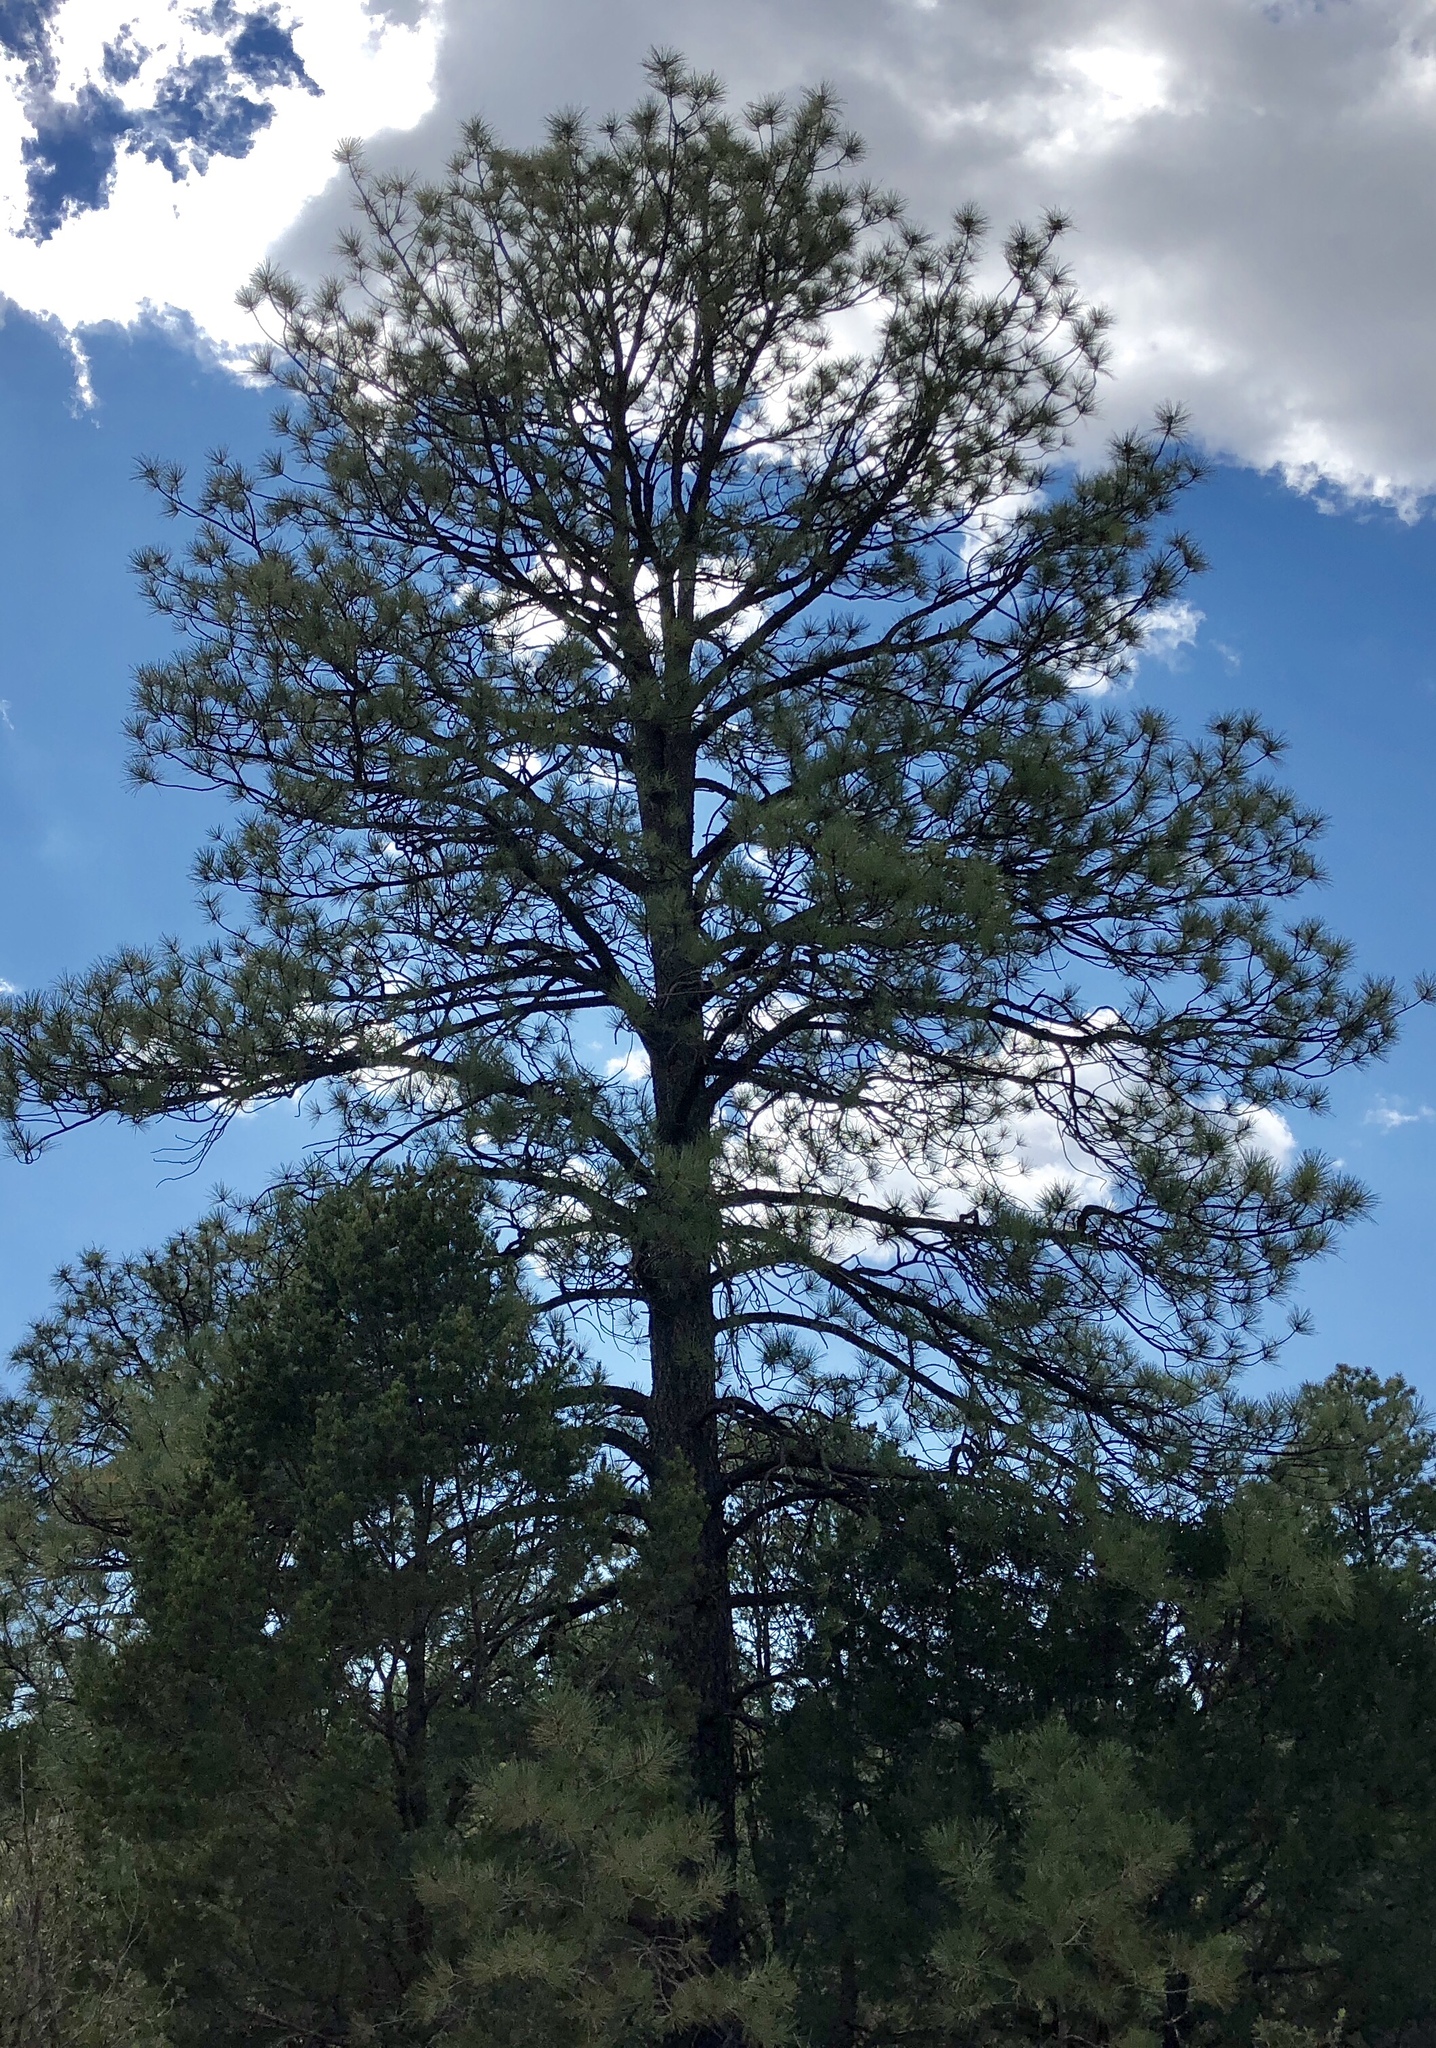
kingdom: Plantae
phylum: Tracheophyta
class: Pinopsida
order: Pinales
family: Pinaceae
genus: Pinus
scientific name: Pinus ponderosa
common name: Western yellow-pine
